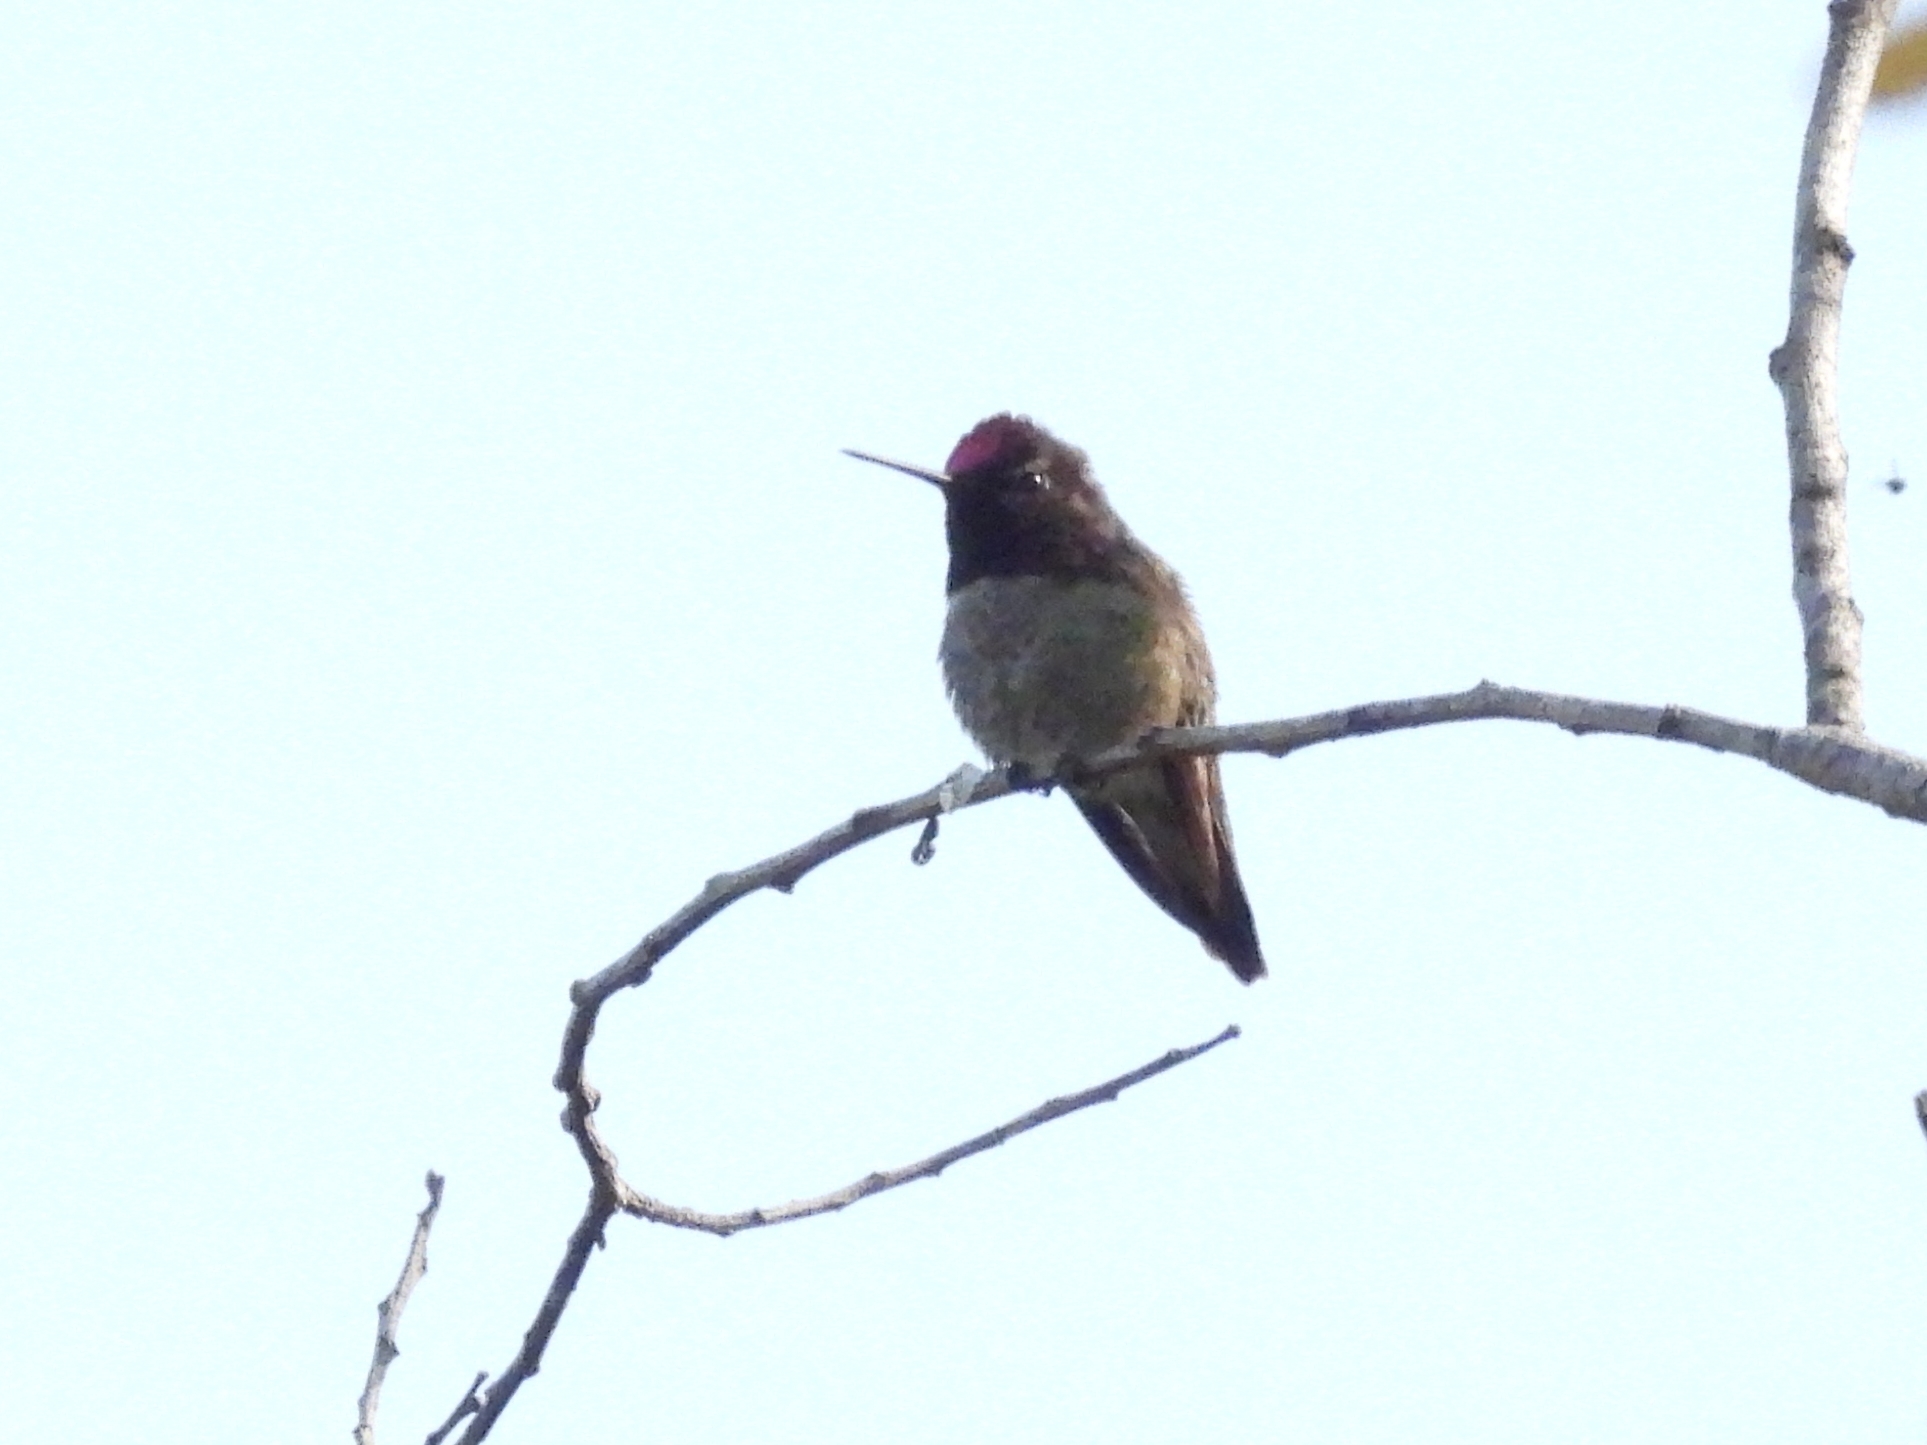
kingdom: Animalia
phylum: Chordata
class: Aves
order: Apodiformes
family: Trochilidae
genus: Calypte
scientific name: Calypte anna
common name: Anna's hummingbird
